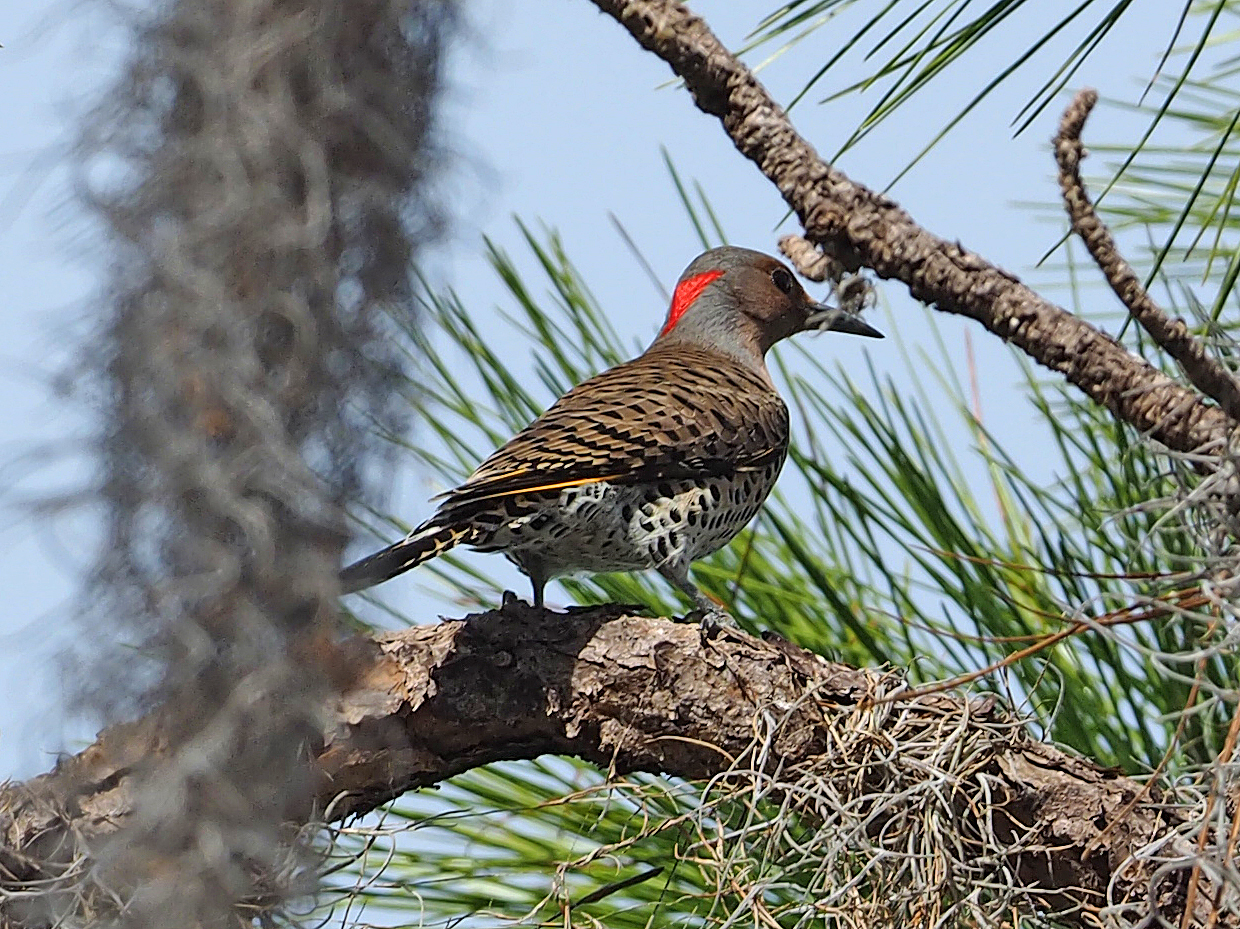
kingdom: Animalia
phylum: Chordata
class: Aves
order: Piciformes
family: Picidae
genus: Colaptes
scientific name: Colaptes auratus
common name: Northern flicker
